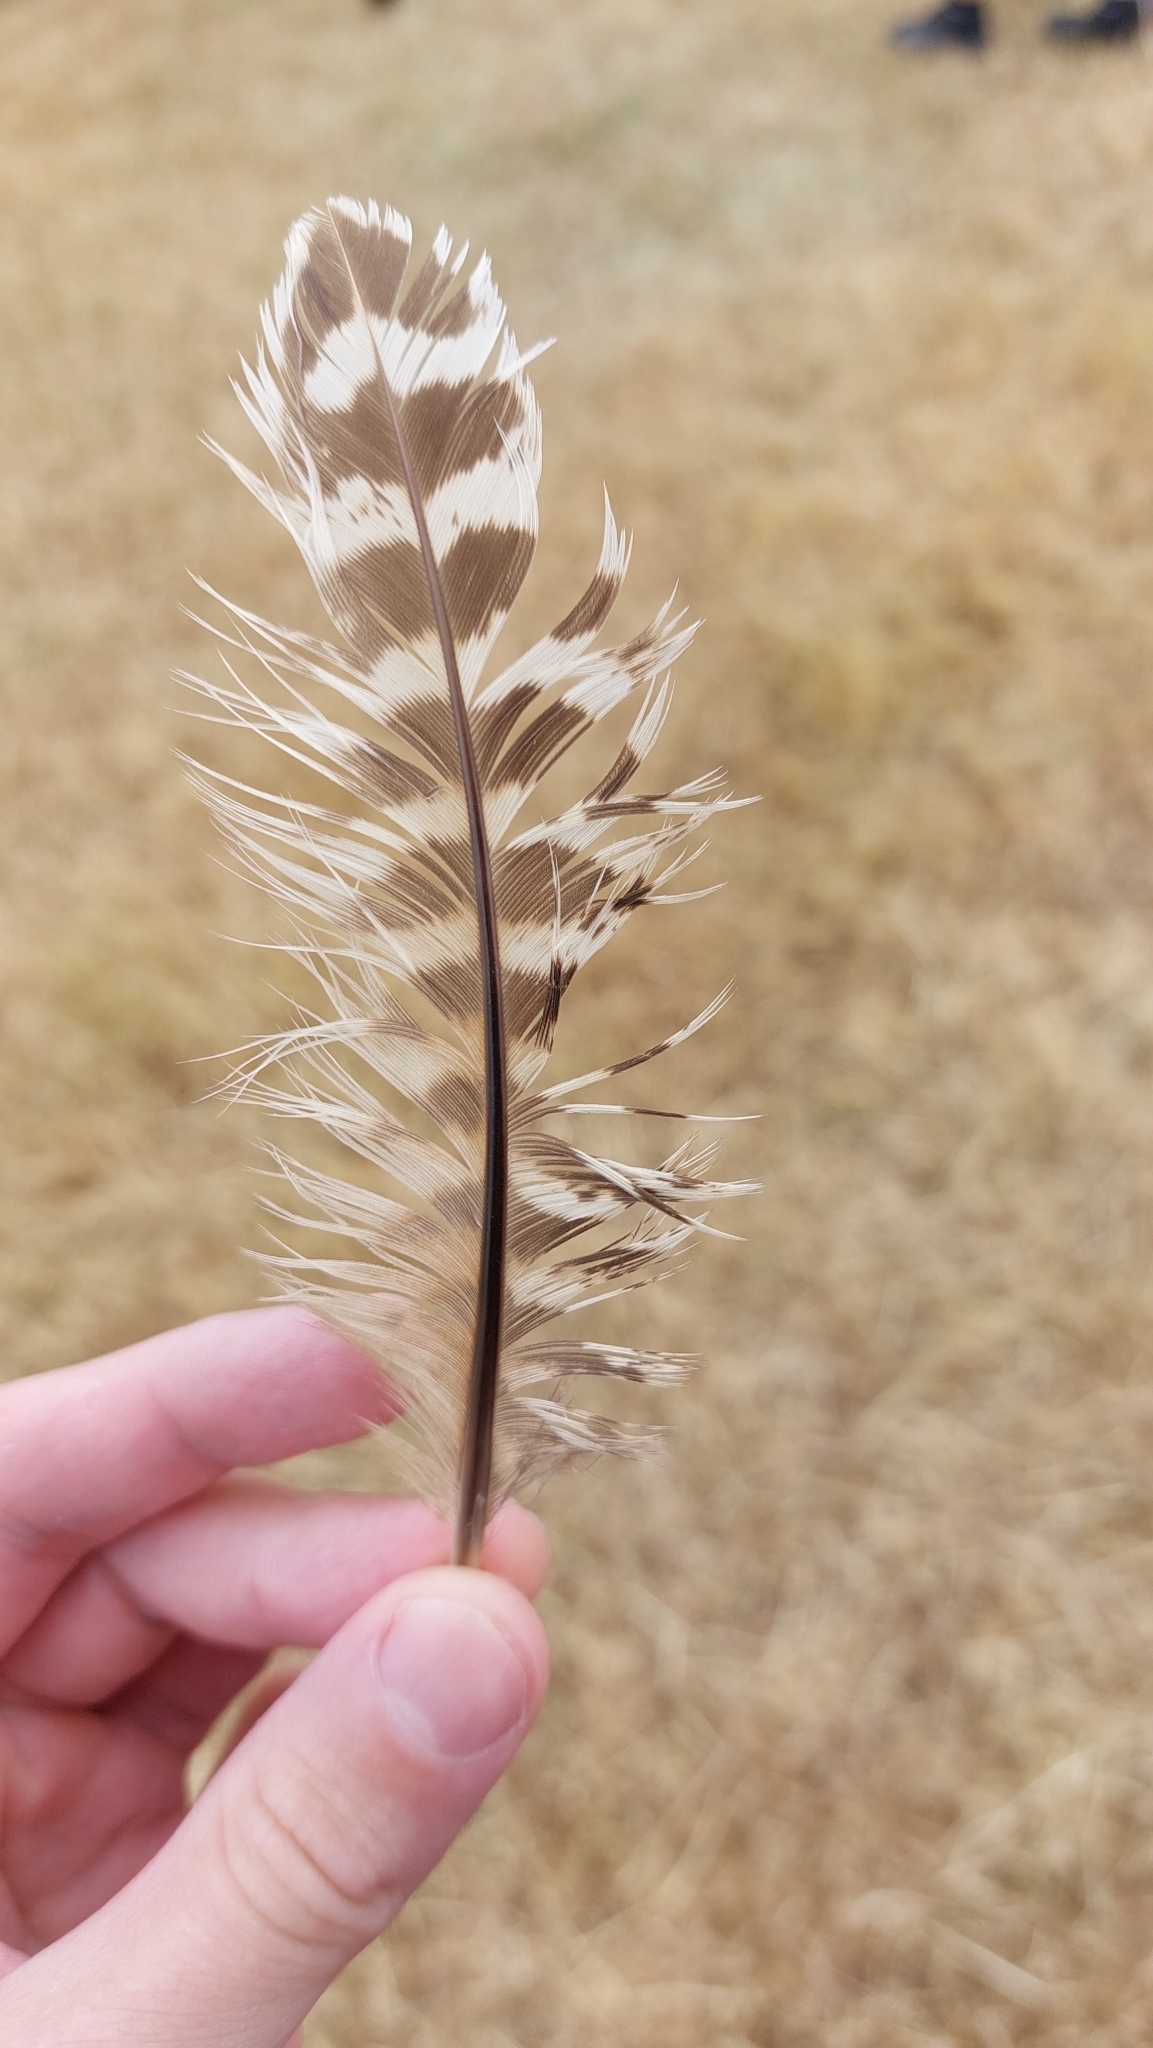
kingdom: Animalia
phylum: Chordata
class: Aves
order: Galliformes
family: Phasianidae
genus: Phasianus
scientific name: Phasianus colchicus
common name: Common pheasant
